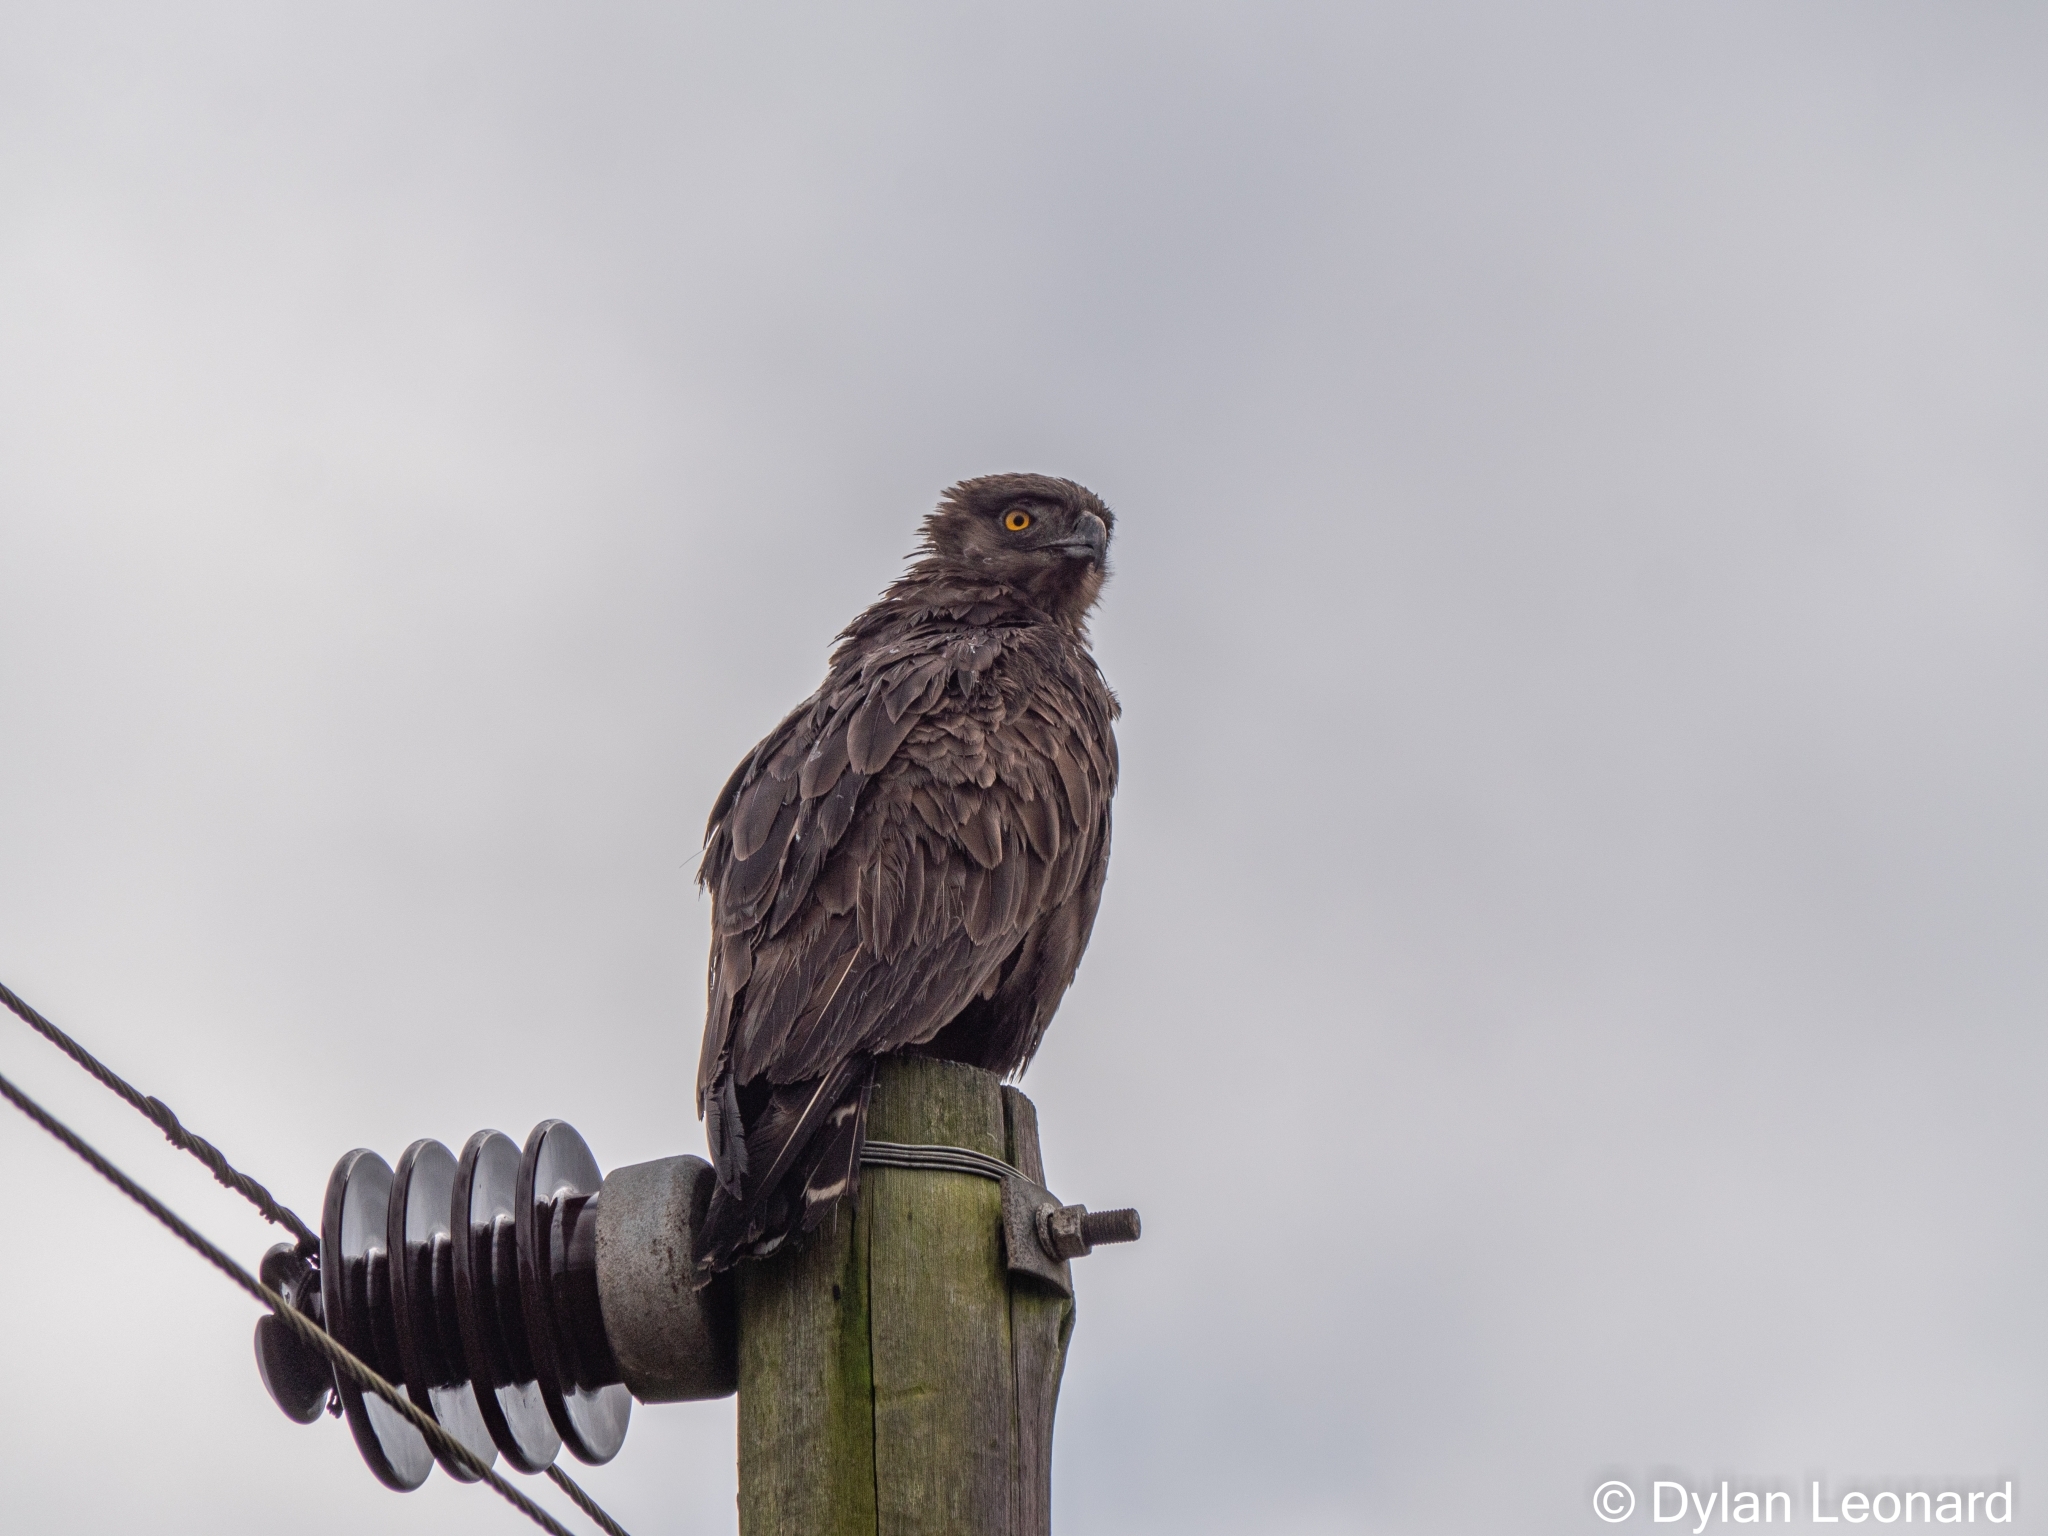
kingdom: Animalia
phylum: Chordata
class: Aves
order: Accipitriformes
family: Accipitridae
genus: Circaetus
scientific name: Circaetus cinereus
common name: Brown snake eagle
